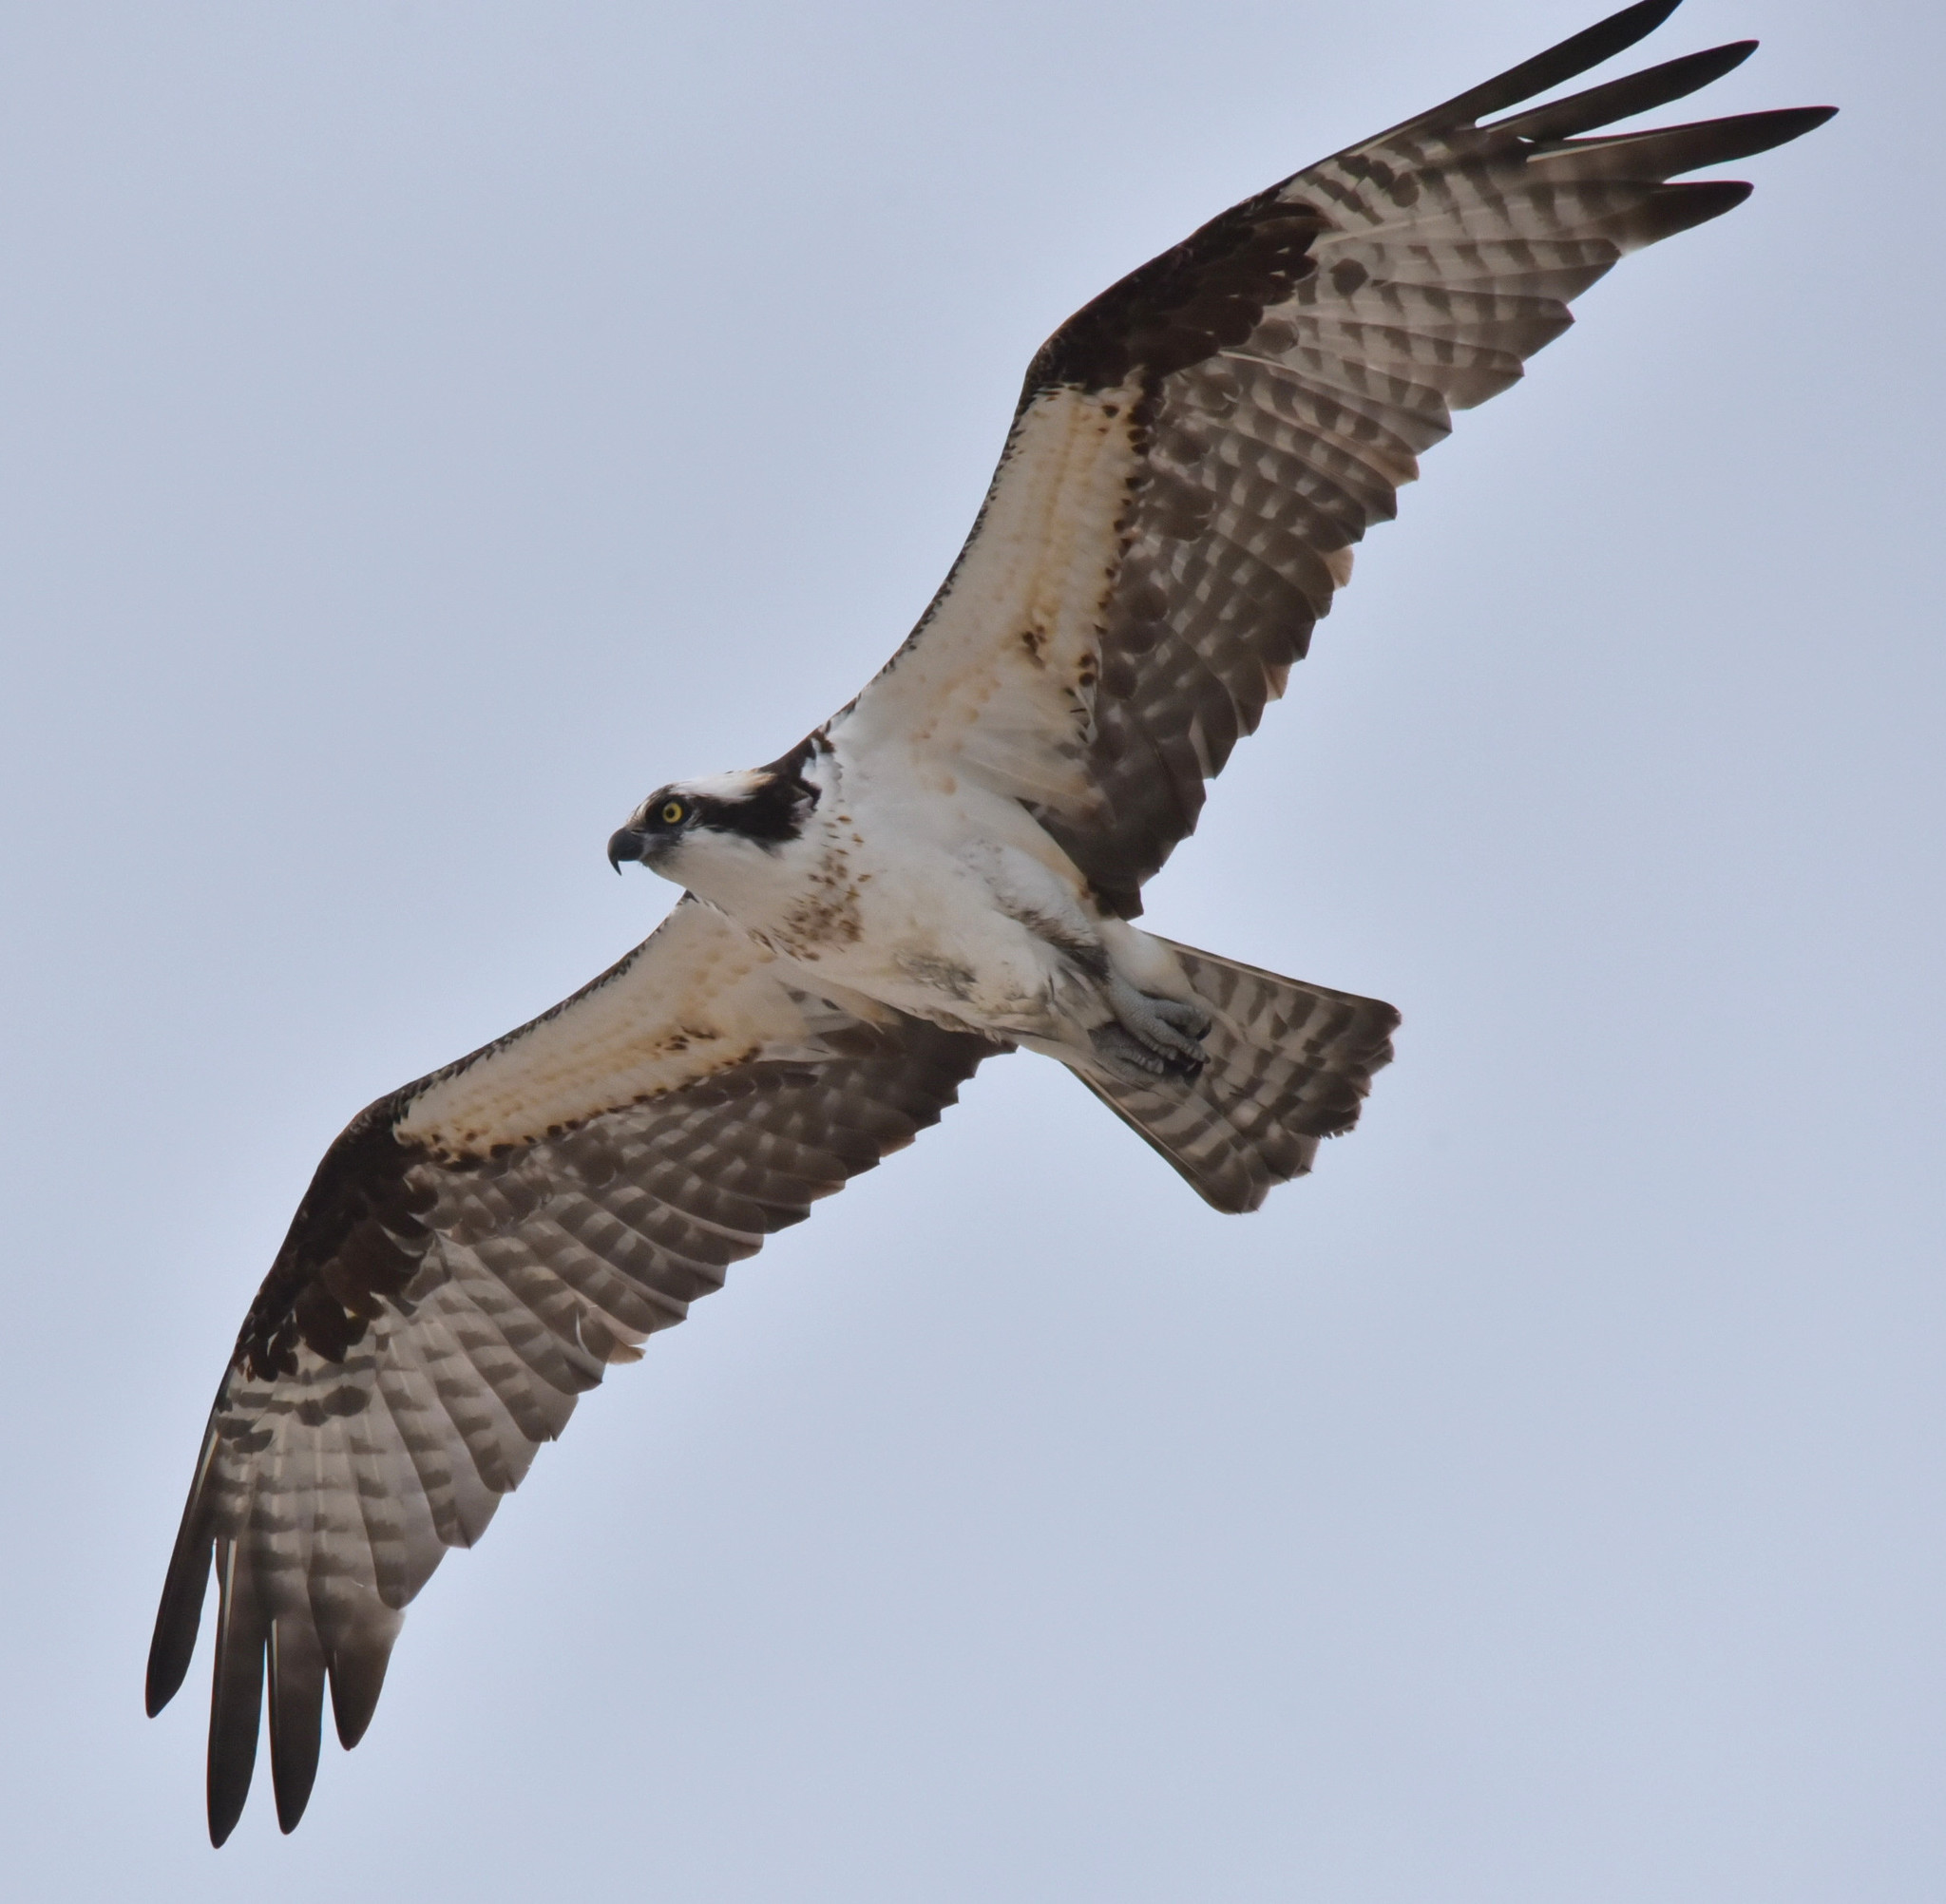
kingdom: Animalia
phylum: Chordata
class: Aves
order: Accipitriformes
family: Pandionidae
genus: Pandion
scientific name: Pandion haliaetus
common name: Osprey
